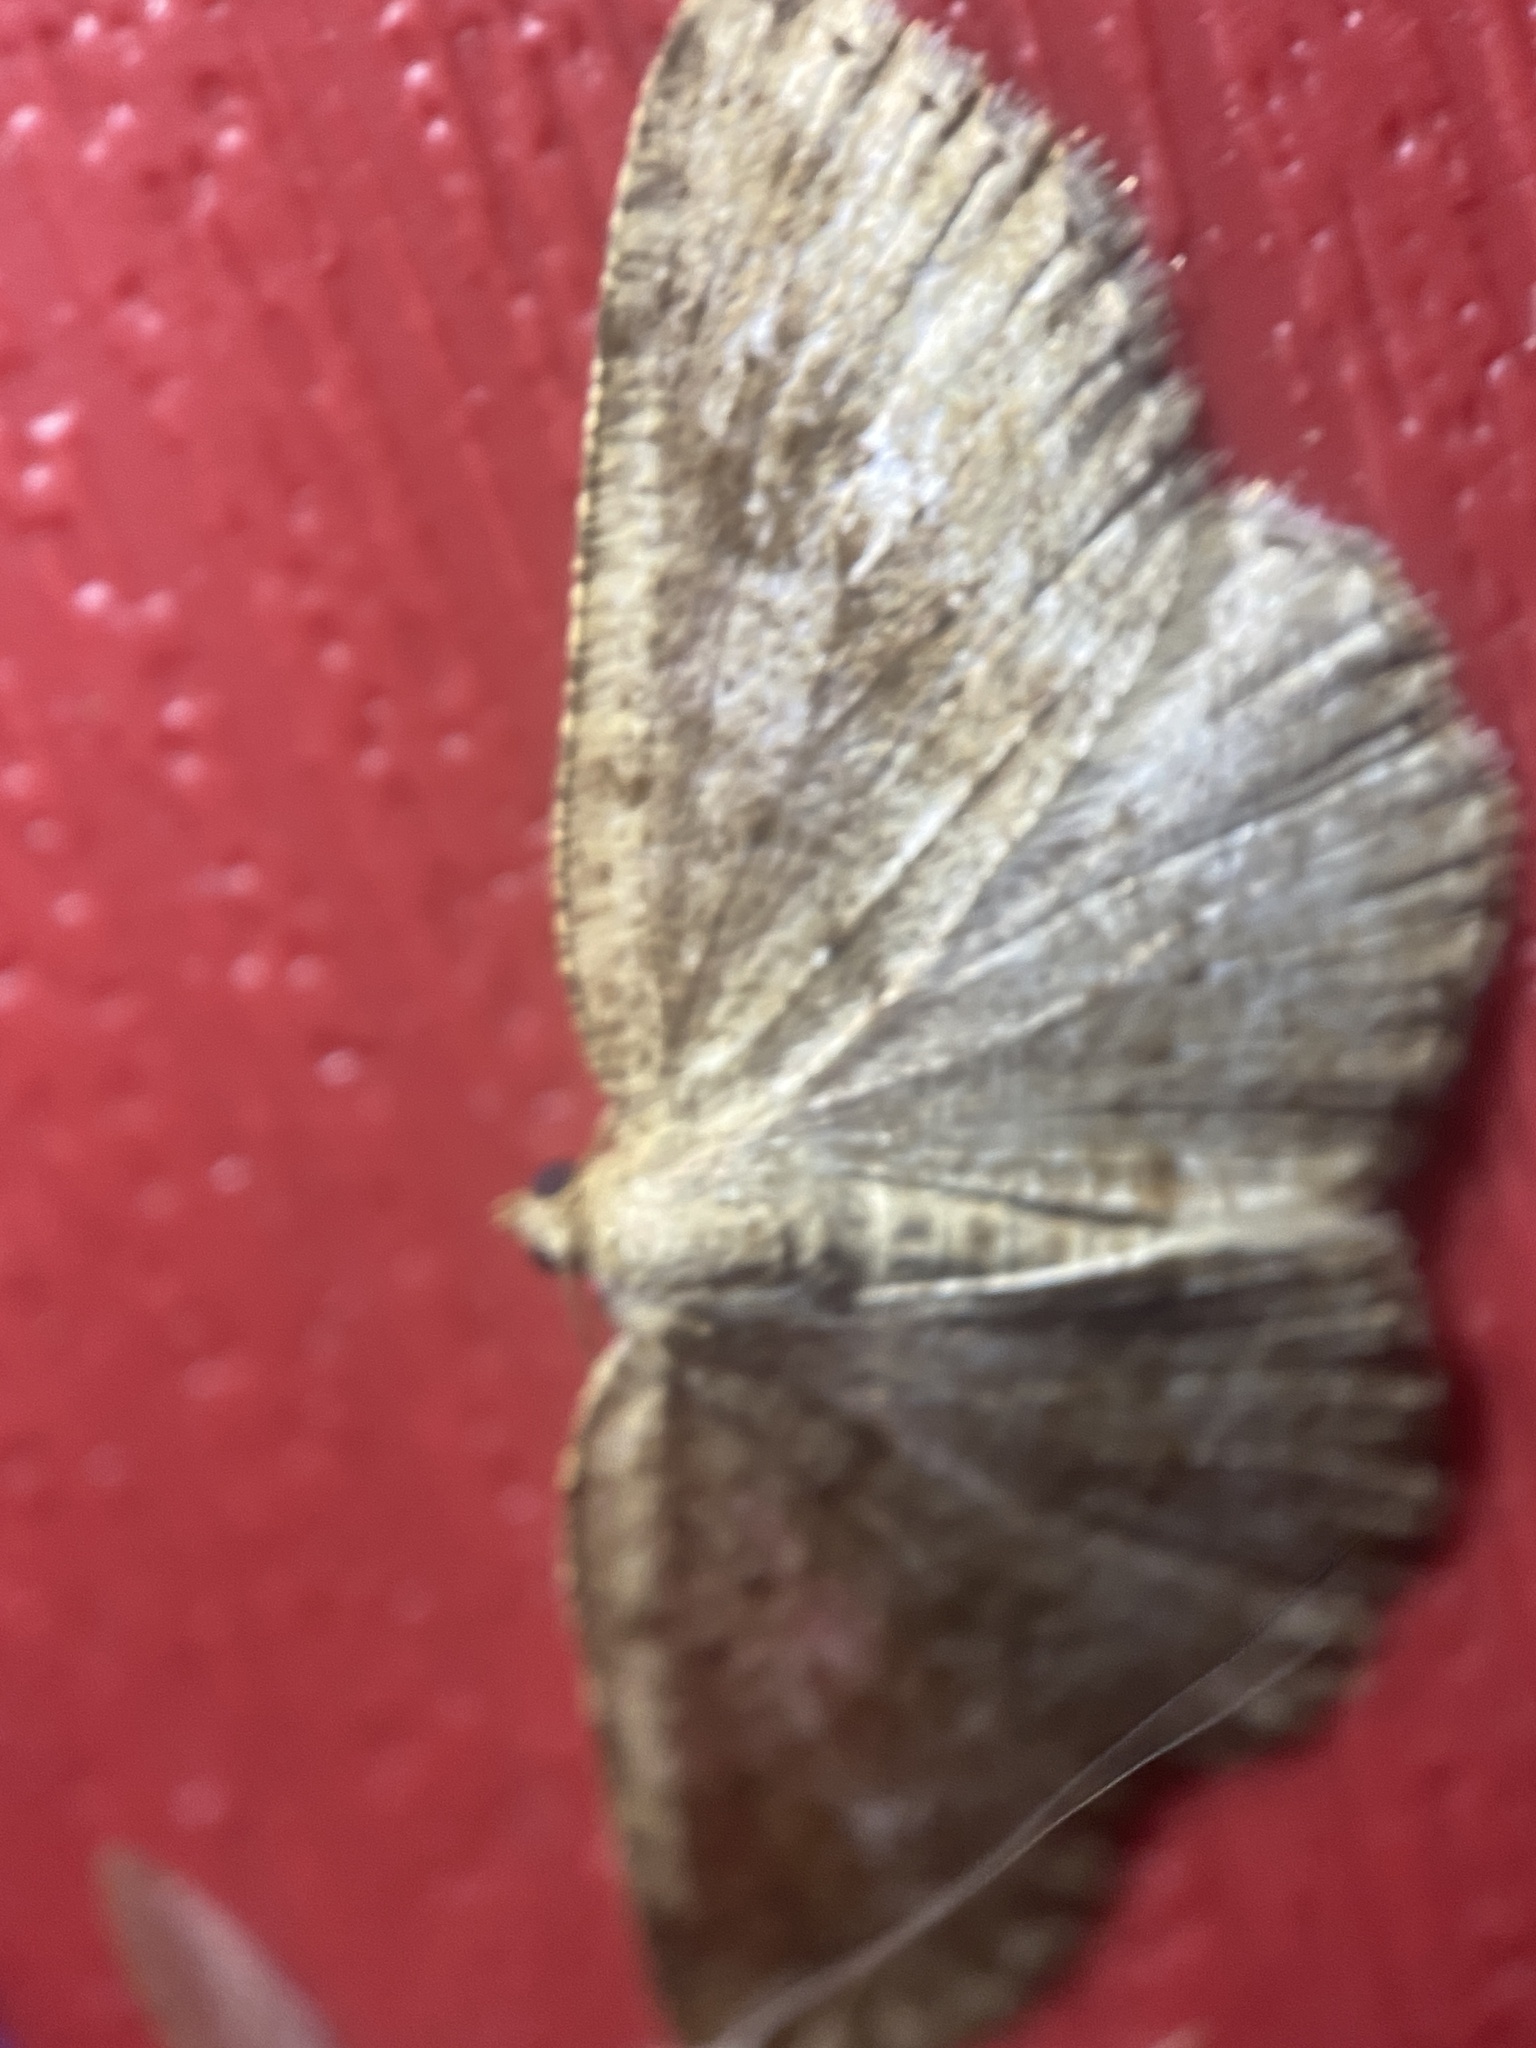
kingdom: Animalia
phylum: Arthropoda
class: Insecta
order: Lepidoptera
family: Geometridae
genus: Homochlodes
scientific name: Homochlodes fritillaria
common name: Pale homochlodes
